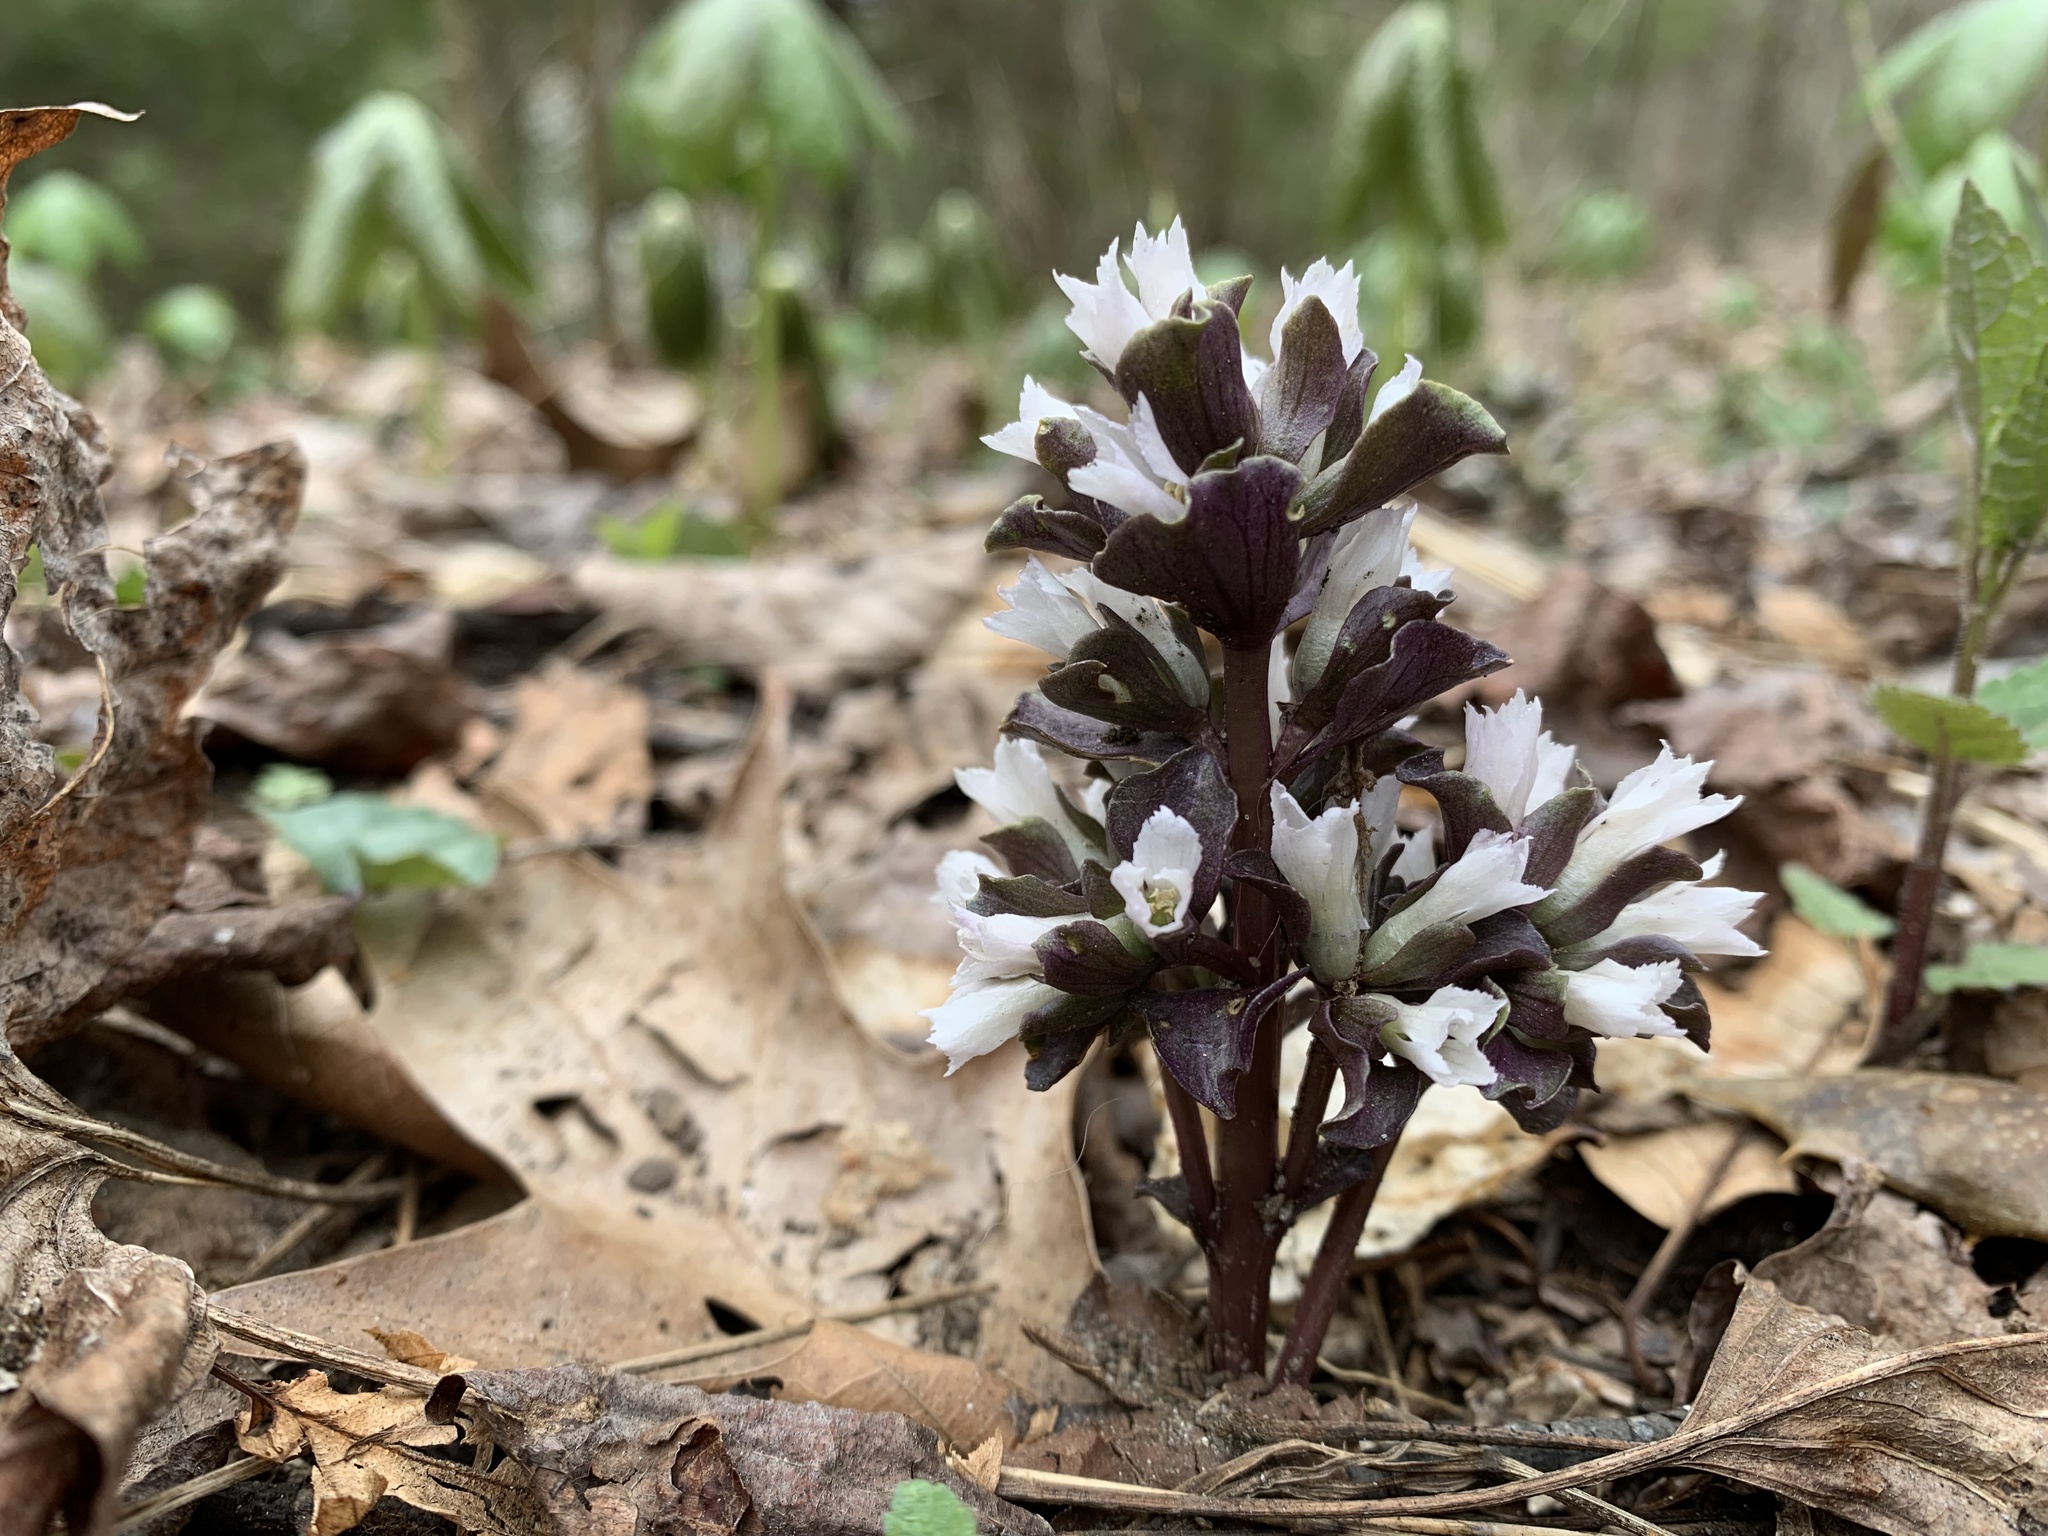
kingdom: Plantae
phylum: Tracheophyta
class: Magnoliopsida
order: Gentianales
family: Gentianaceae
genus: Obolaria
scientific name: Obolaria virginica
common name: Pennywort
